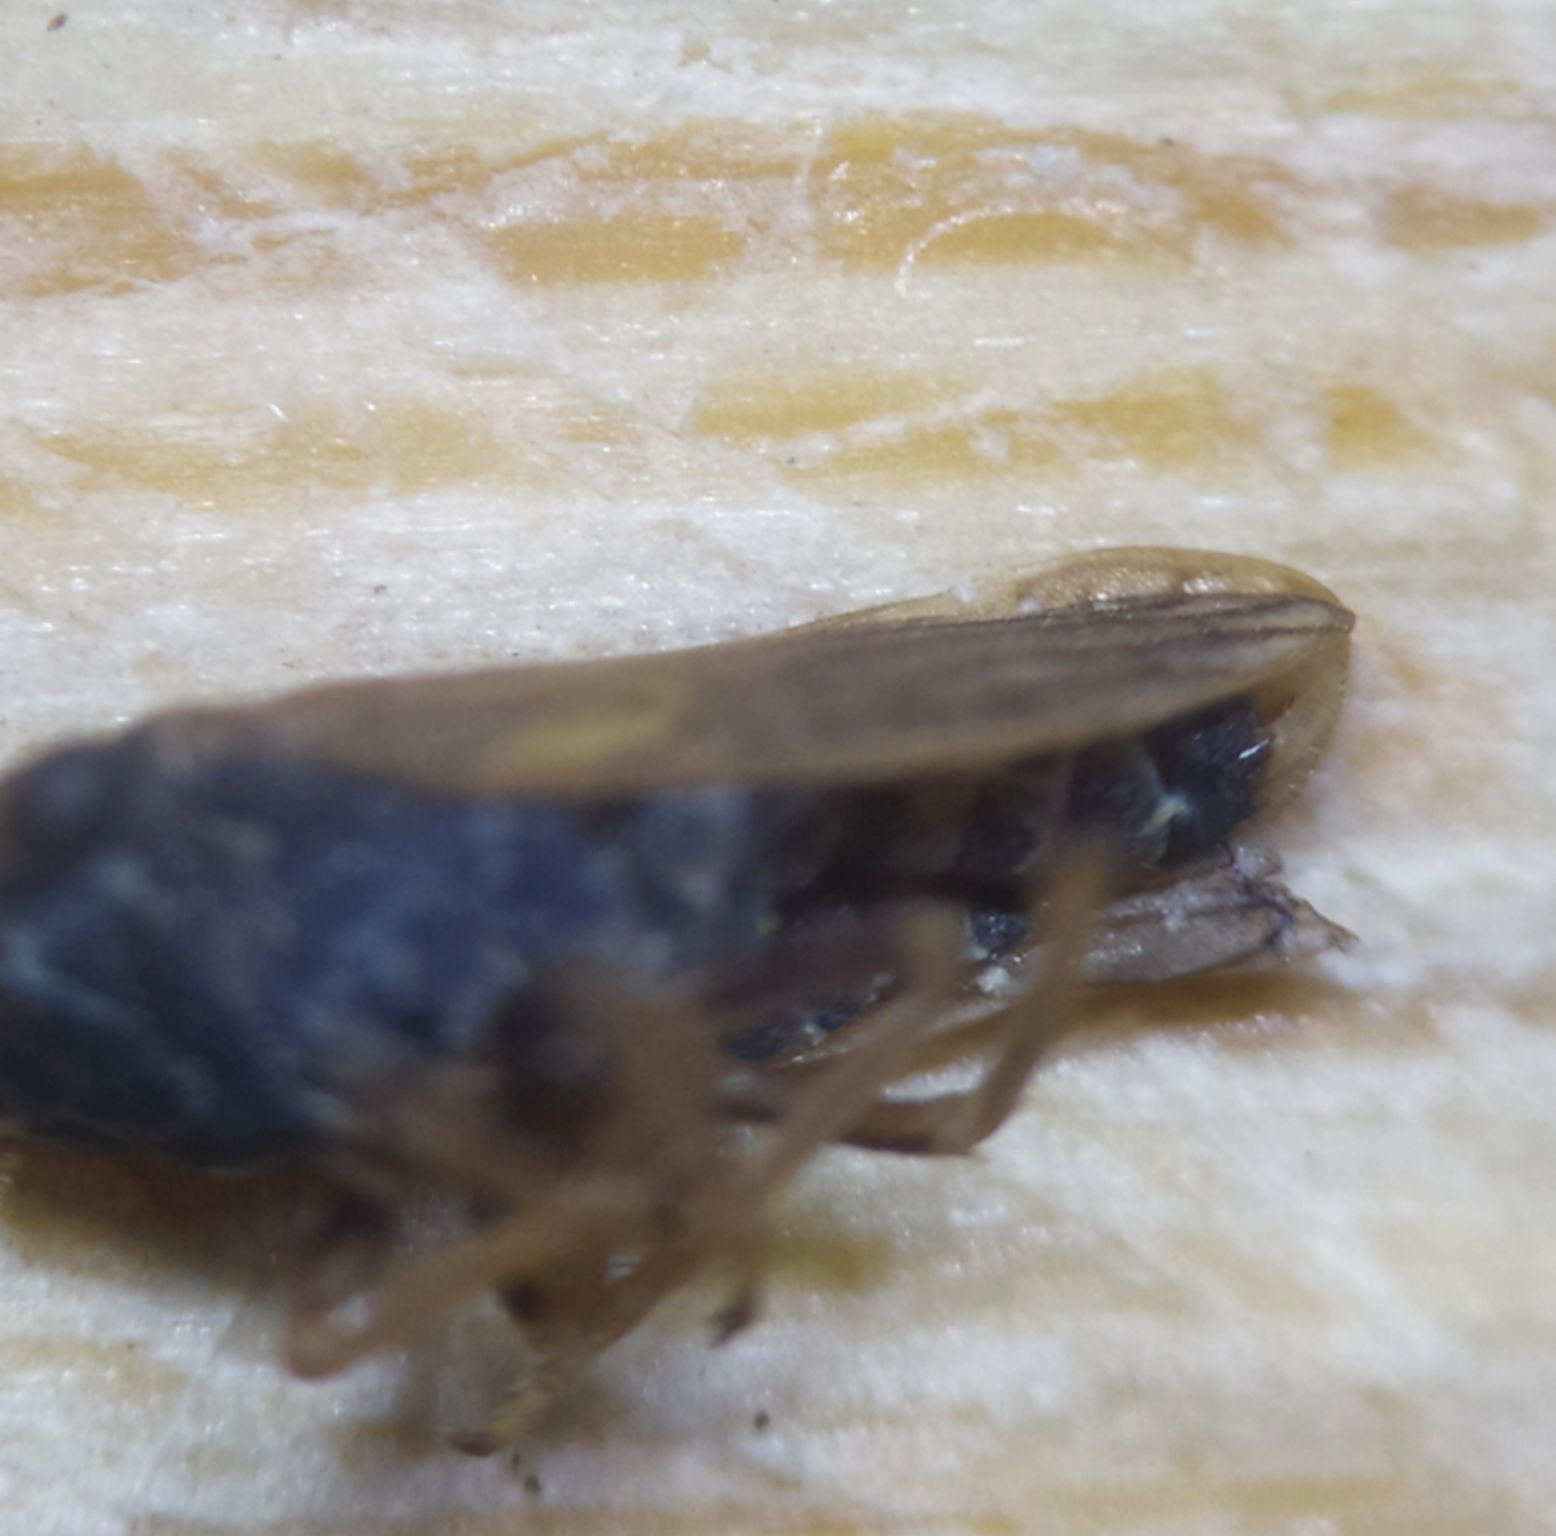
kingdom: Animalia
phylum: Arthropoda
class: Insecta
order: Hemiptera
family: Cicadellidae
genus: Megophthalmus
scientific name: Megophthalmus scanicus
